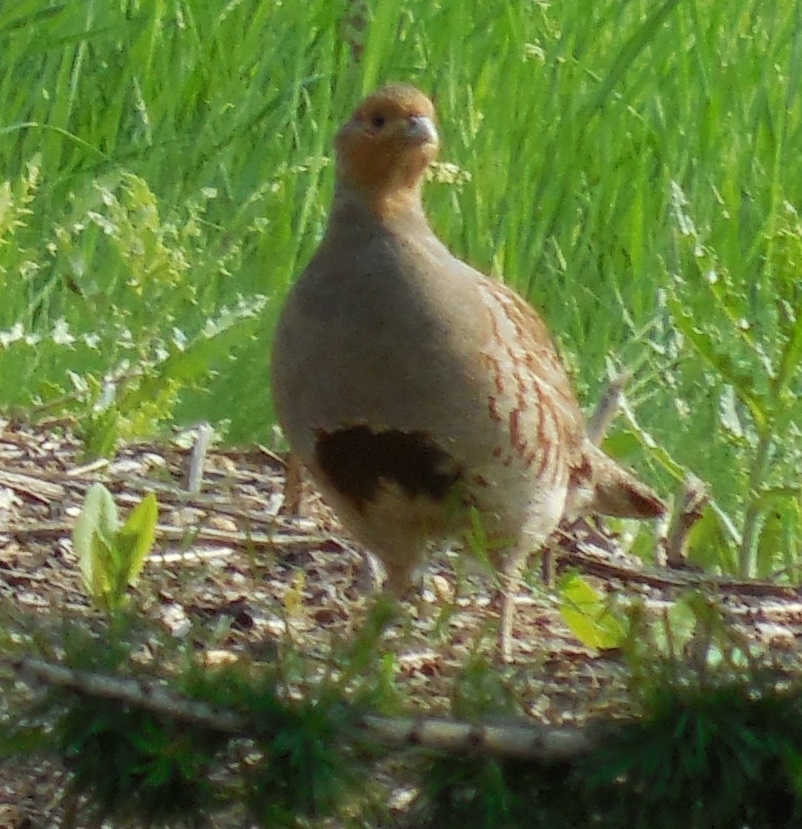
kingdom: Animalia
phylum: Chordata
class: Aves
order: Galliformes
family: Phasianidae
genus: Perdix
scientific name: Perdix perdix
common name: Grey partridge
